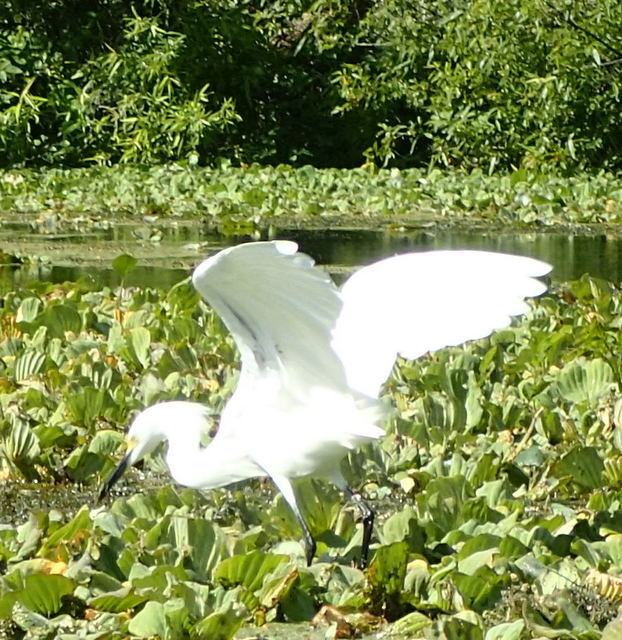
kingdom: Animalia
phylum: Chordata
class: Aves
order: Pelecaniformes
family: Ardeidae
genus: Egretta
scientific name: Egretta thula
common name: Snowy egret
